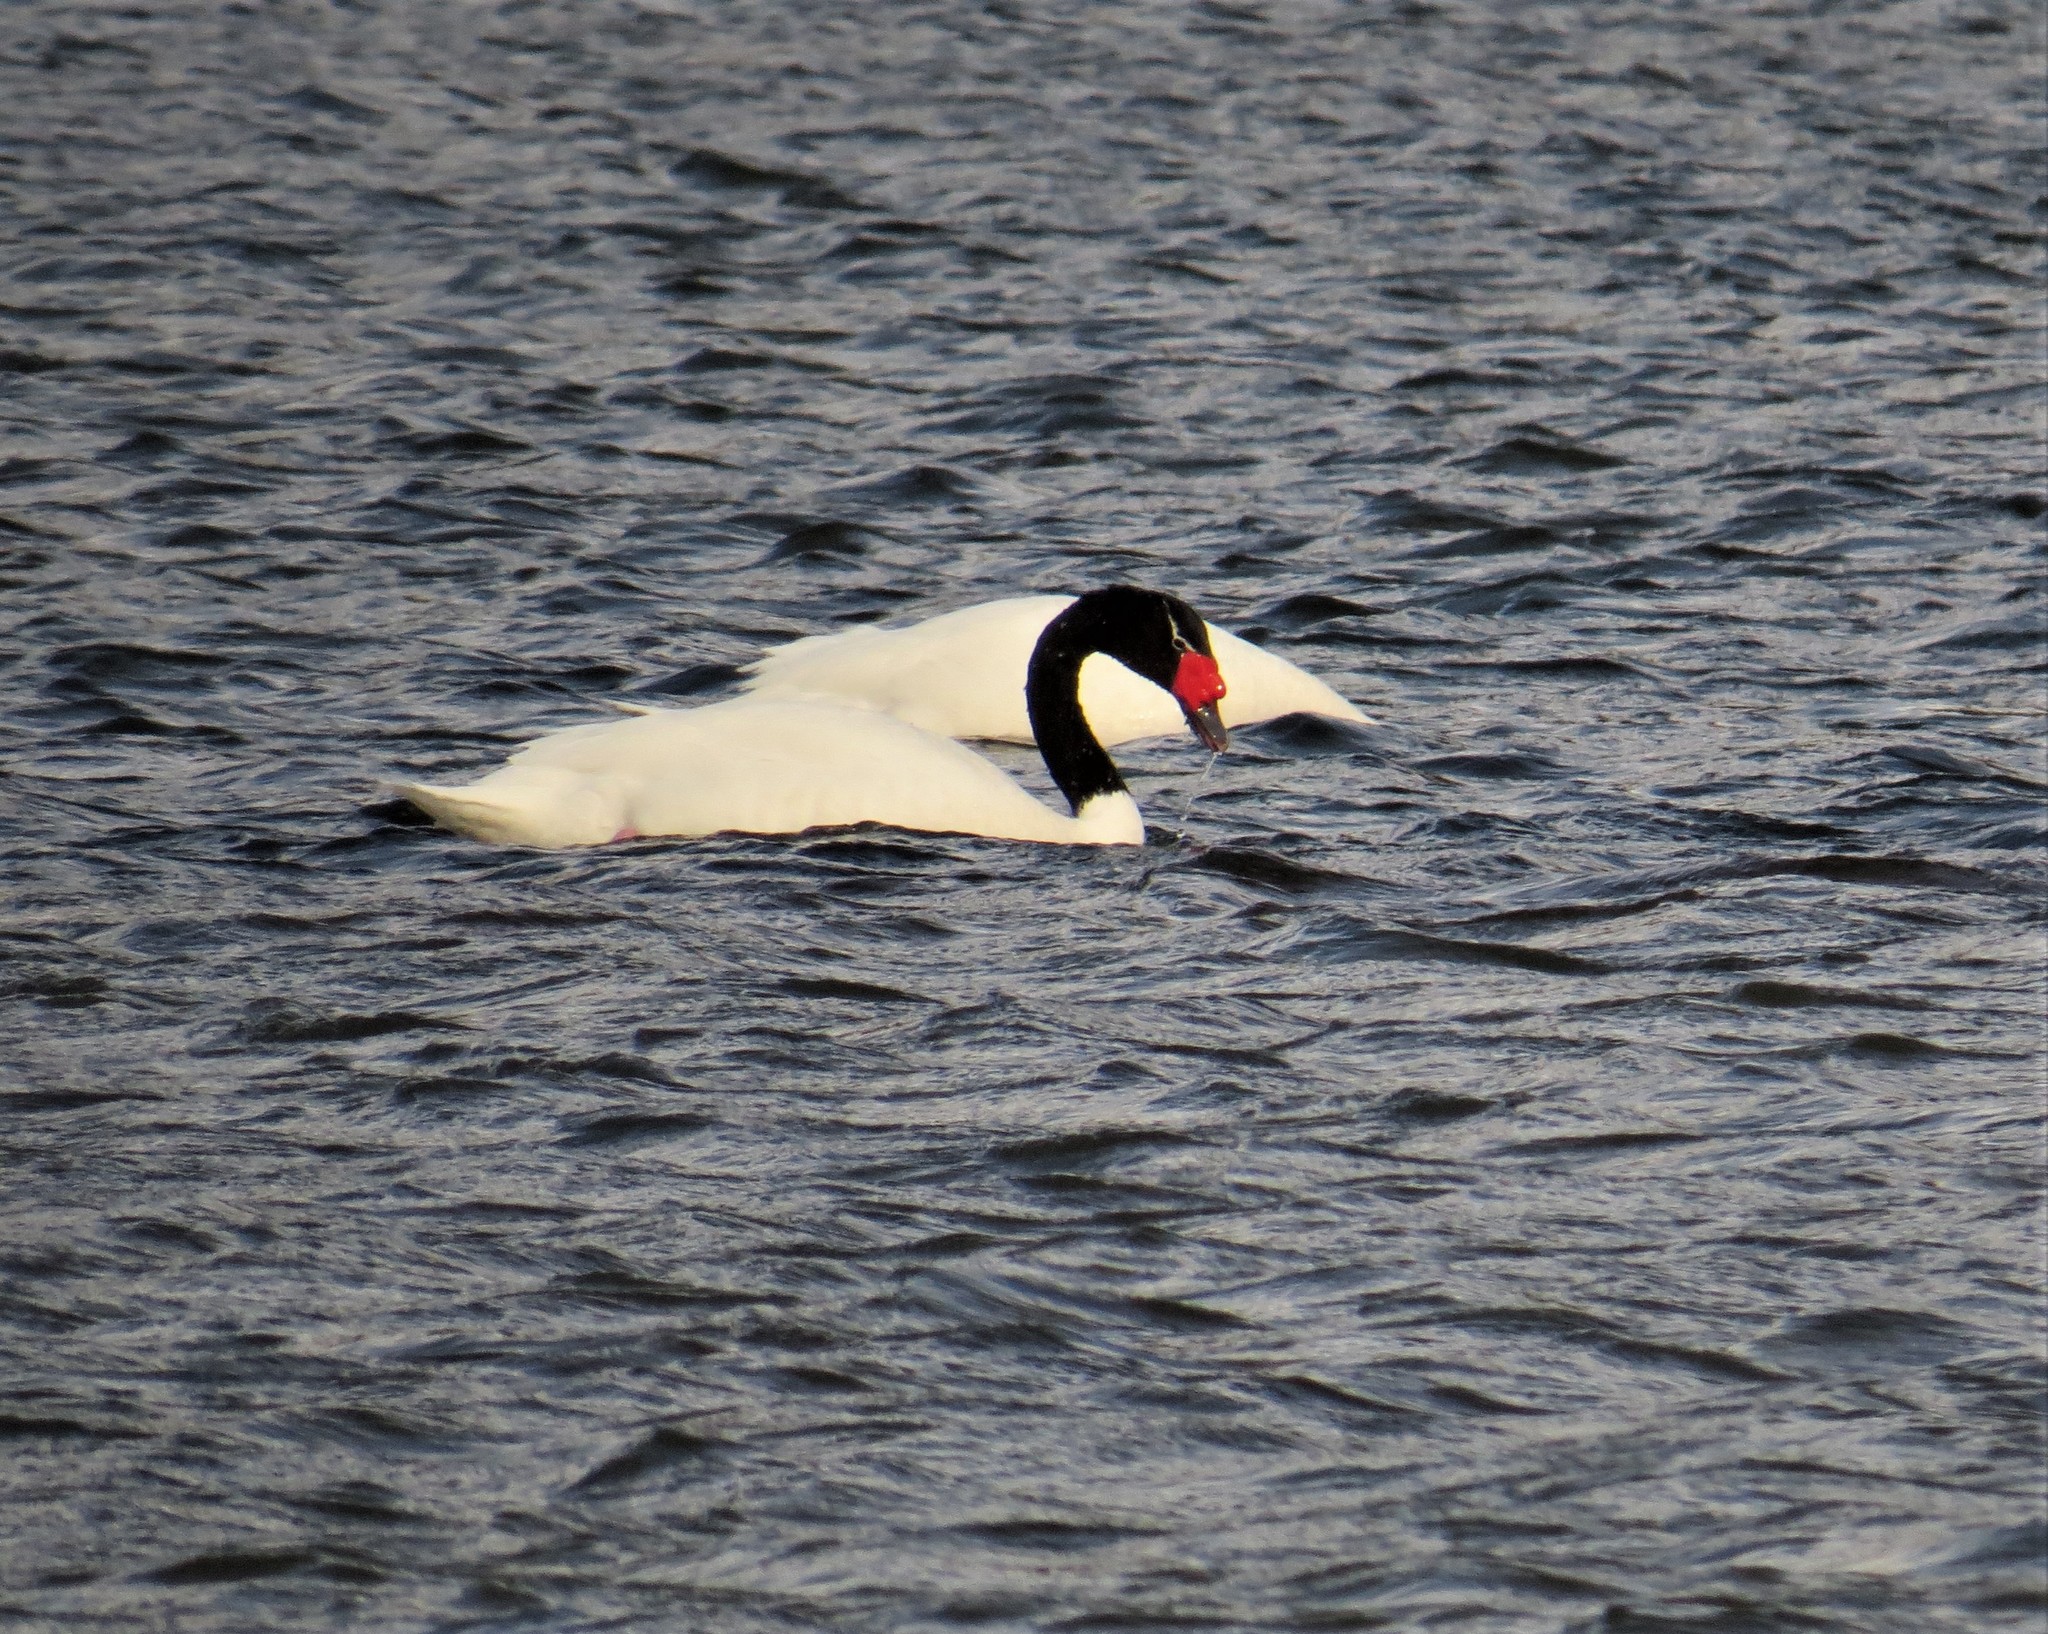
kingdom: Animalia
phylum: Chordata
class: Aves
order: Anseriformes
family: Anatidae
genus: Cygnus
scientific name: Cygnus melancoryphus
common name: Black-necked swan
